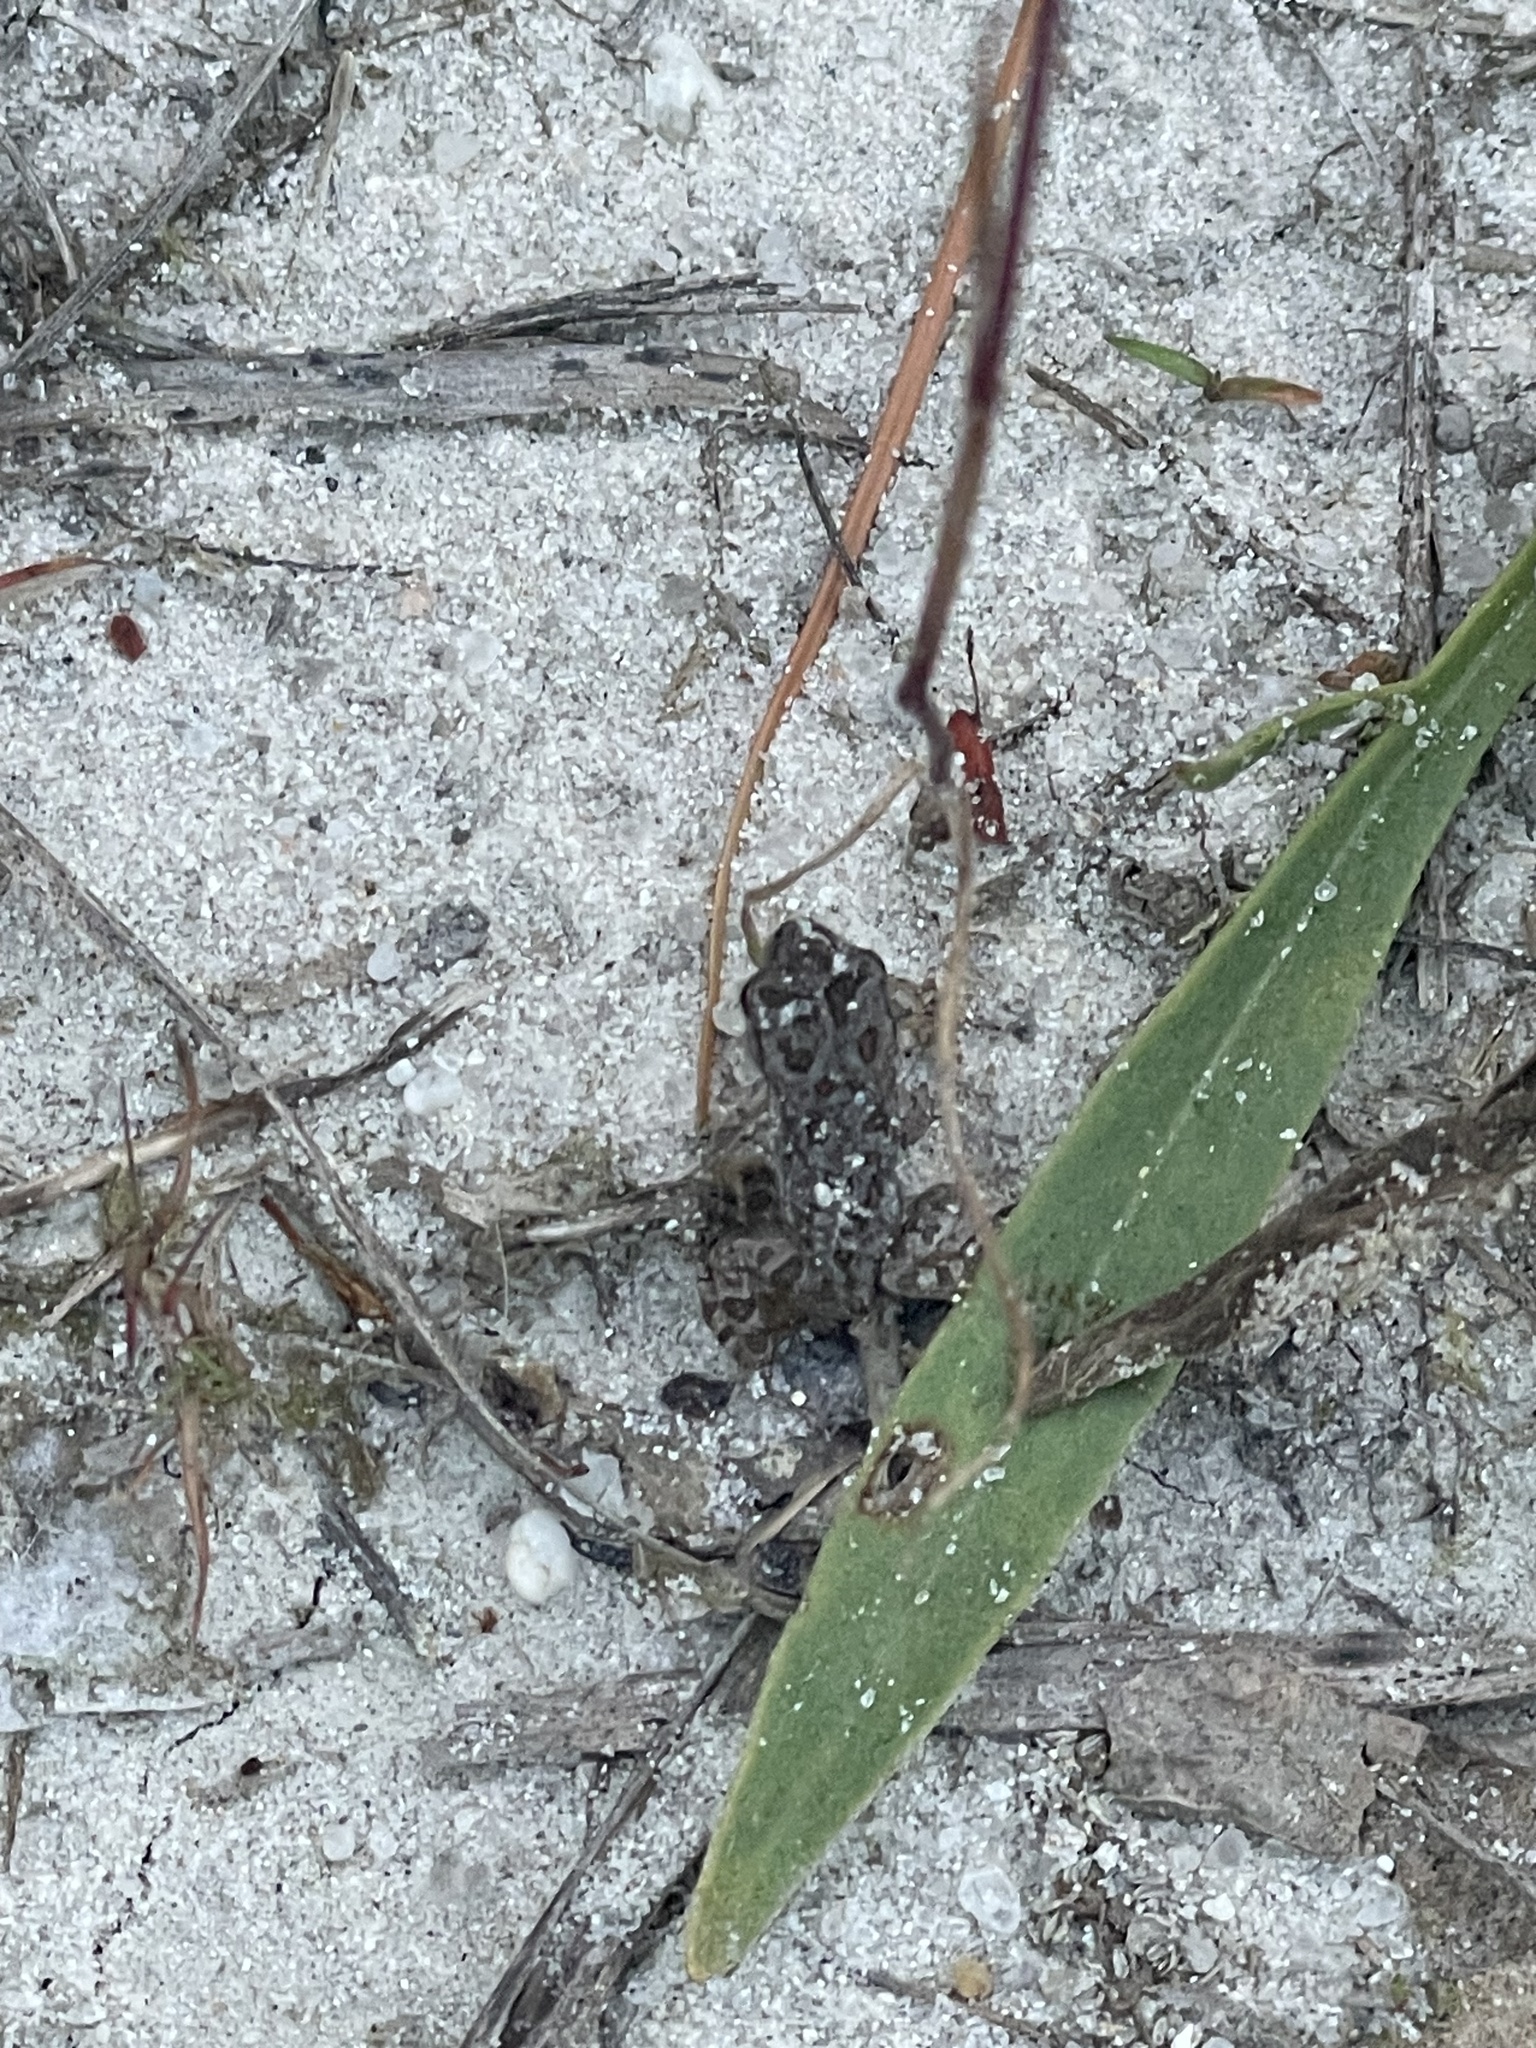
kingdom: Animalia
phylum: Chordata
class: Amphibia
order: Anura
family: Bufonidae
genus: Anaxyrus
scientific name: Anaxyrus fowleri
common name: Fowler's toad
